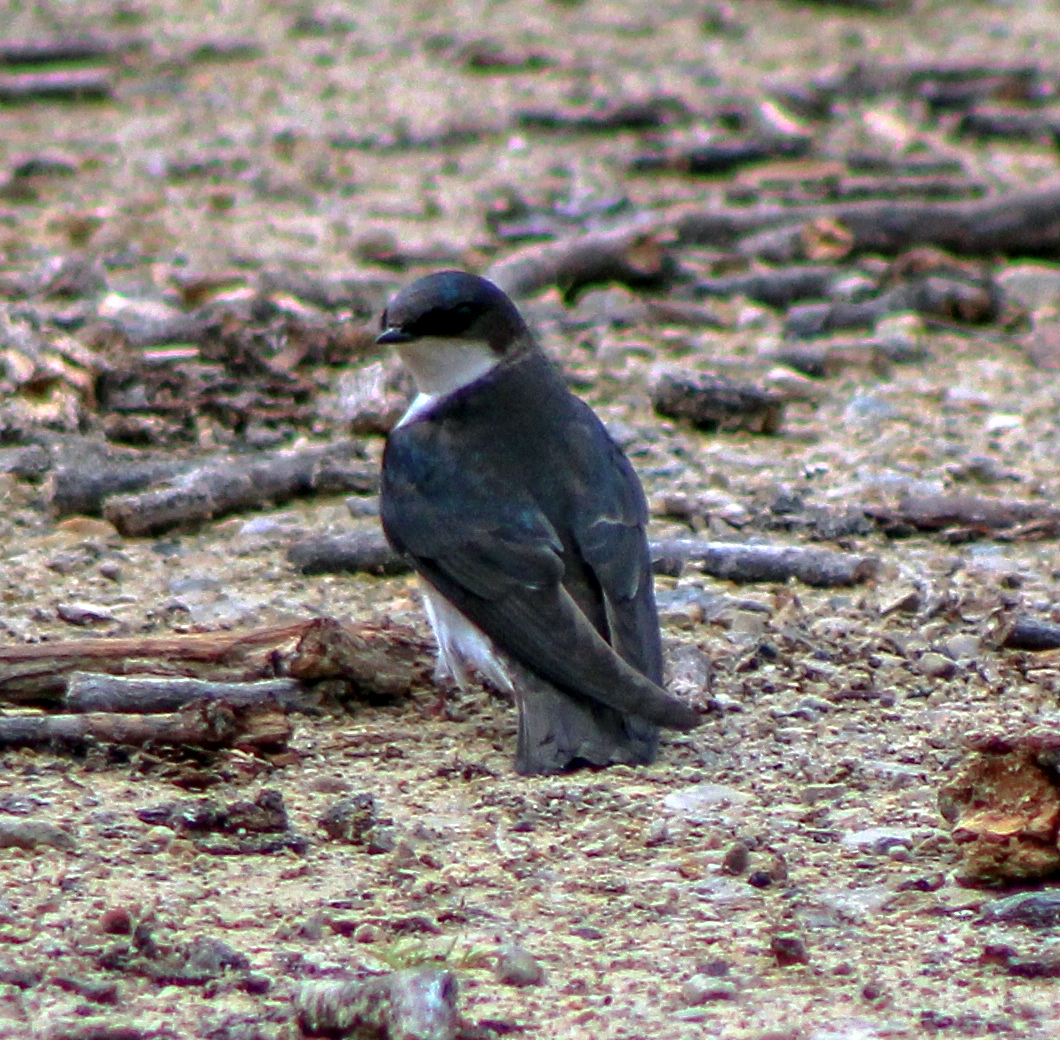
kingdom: Animalia
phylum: Chordata
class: Aves
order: Passeriformes
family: Hirundinidae
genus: Tachycineta
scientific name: Tachycineta bicolor
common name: Tree swallow
